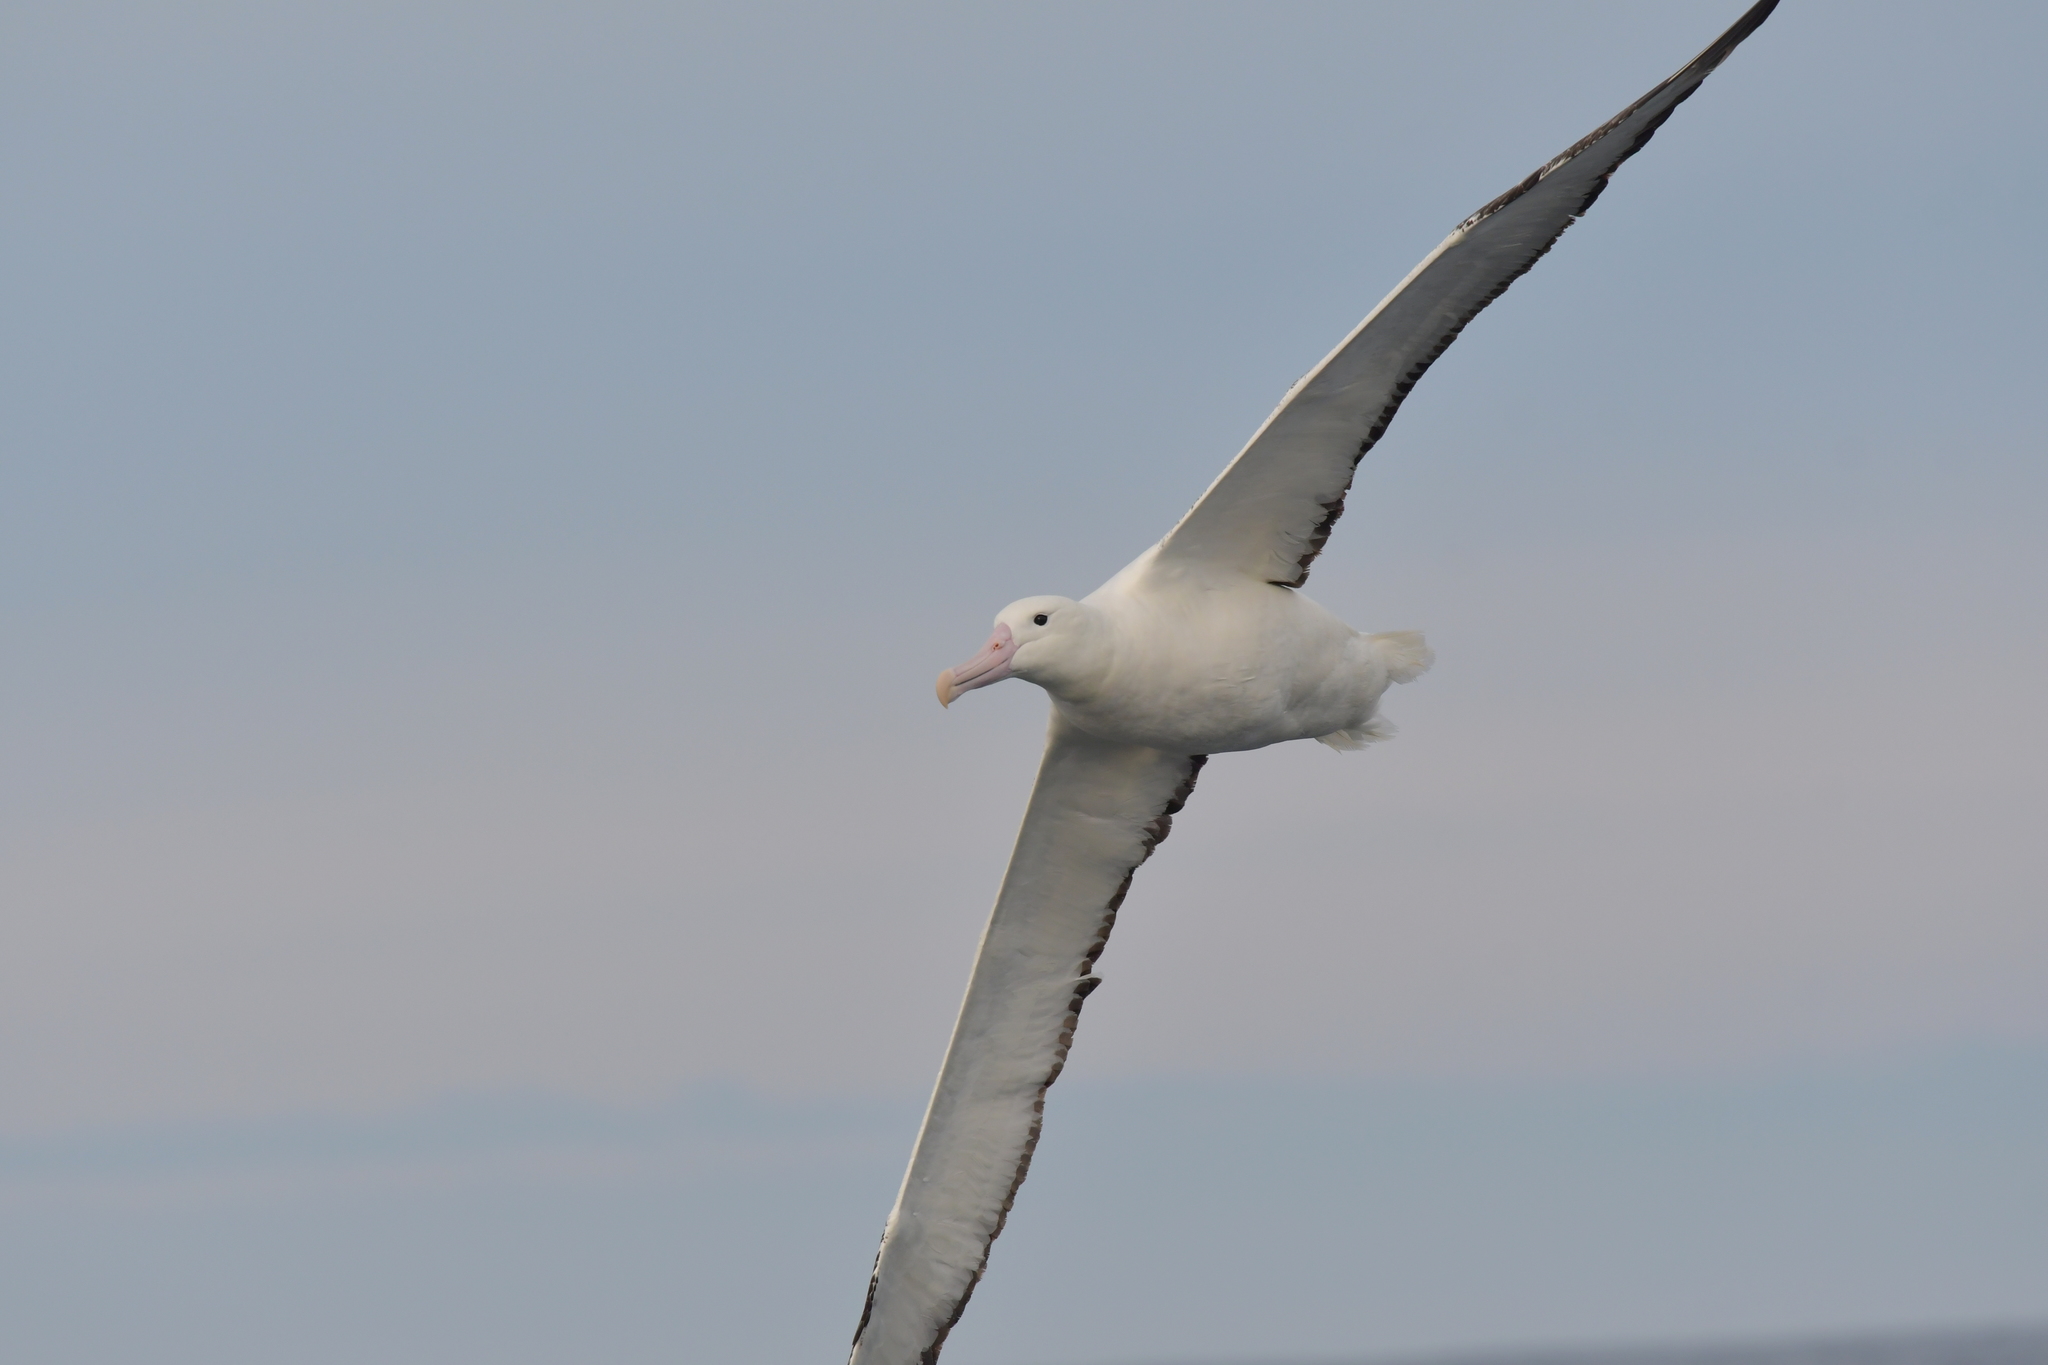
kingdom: Animalia
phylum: Chordata
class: Aves
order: Procellariiformes
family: Diomedeidae
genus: Diomedea
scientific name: Diomedea epomophora
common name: Southern royal albatross
